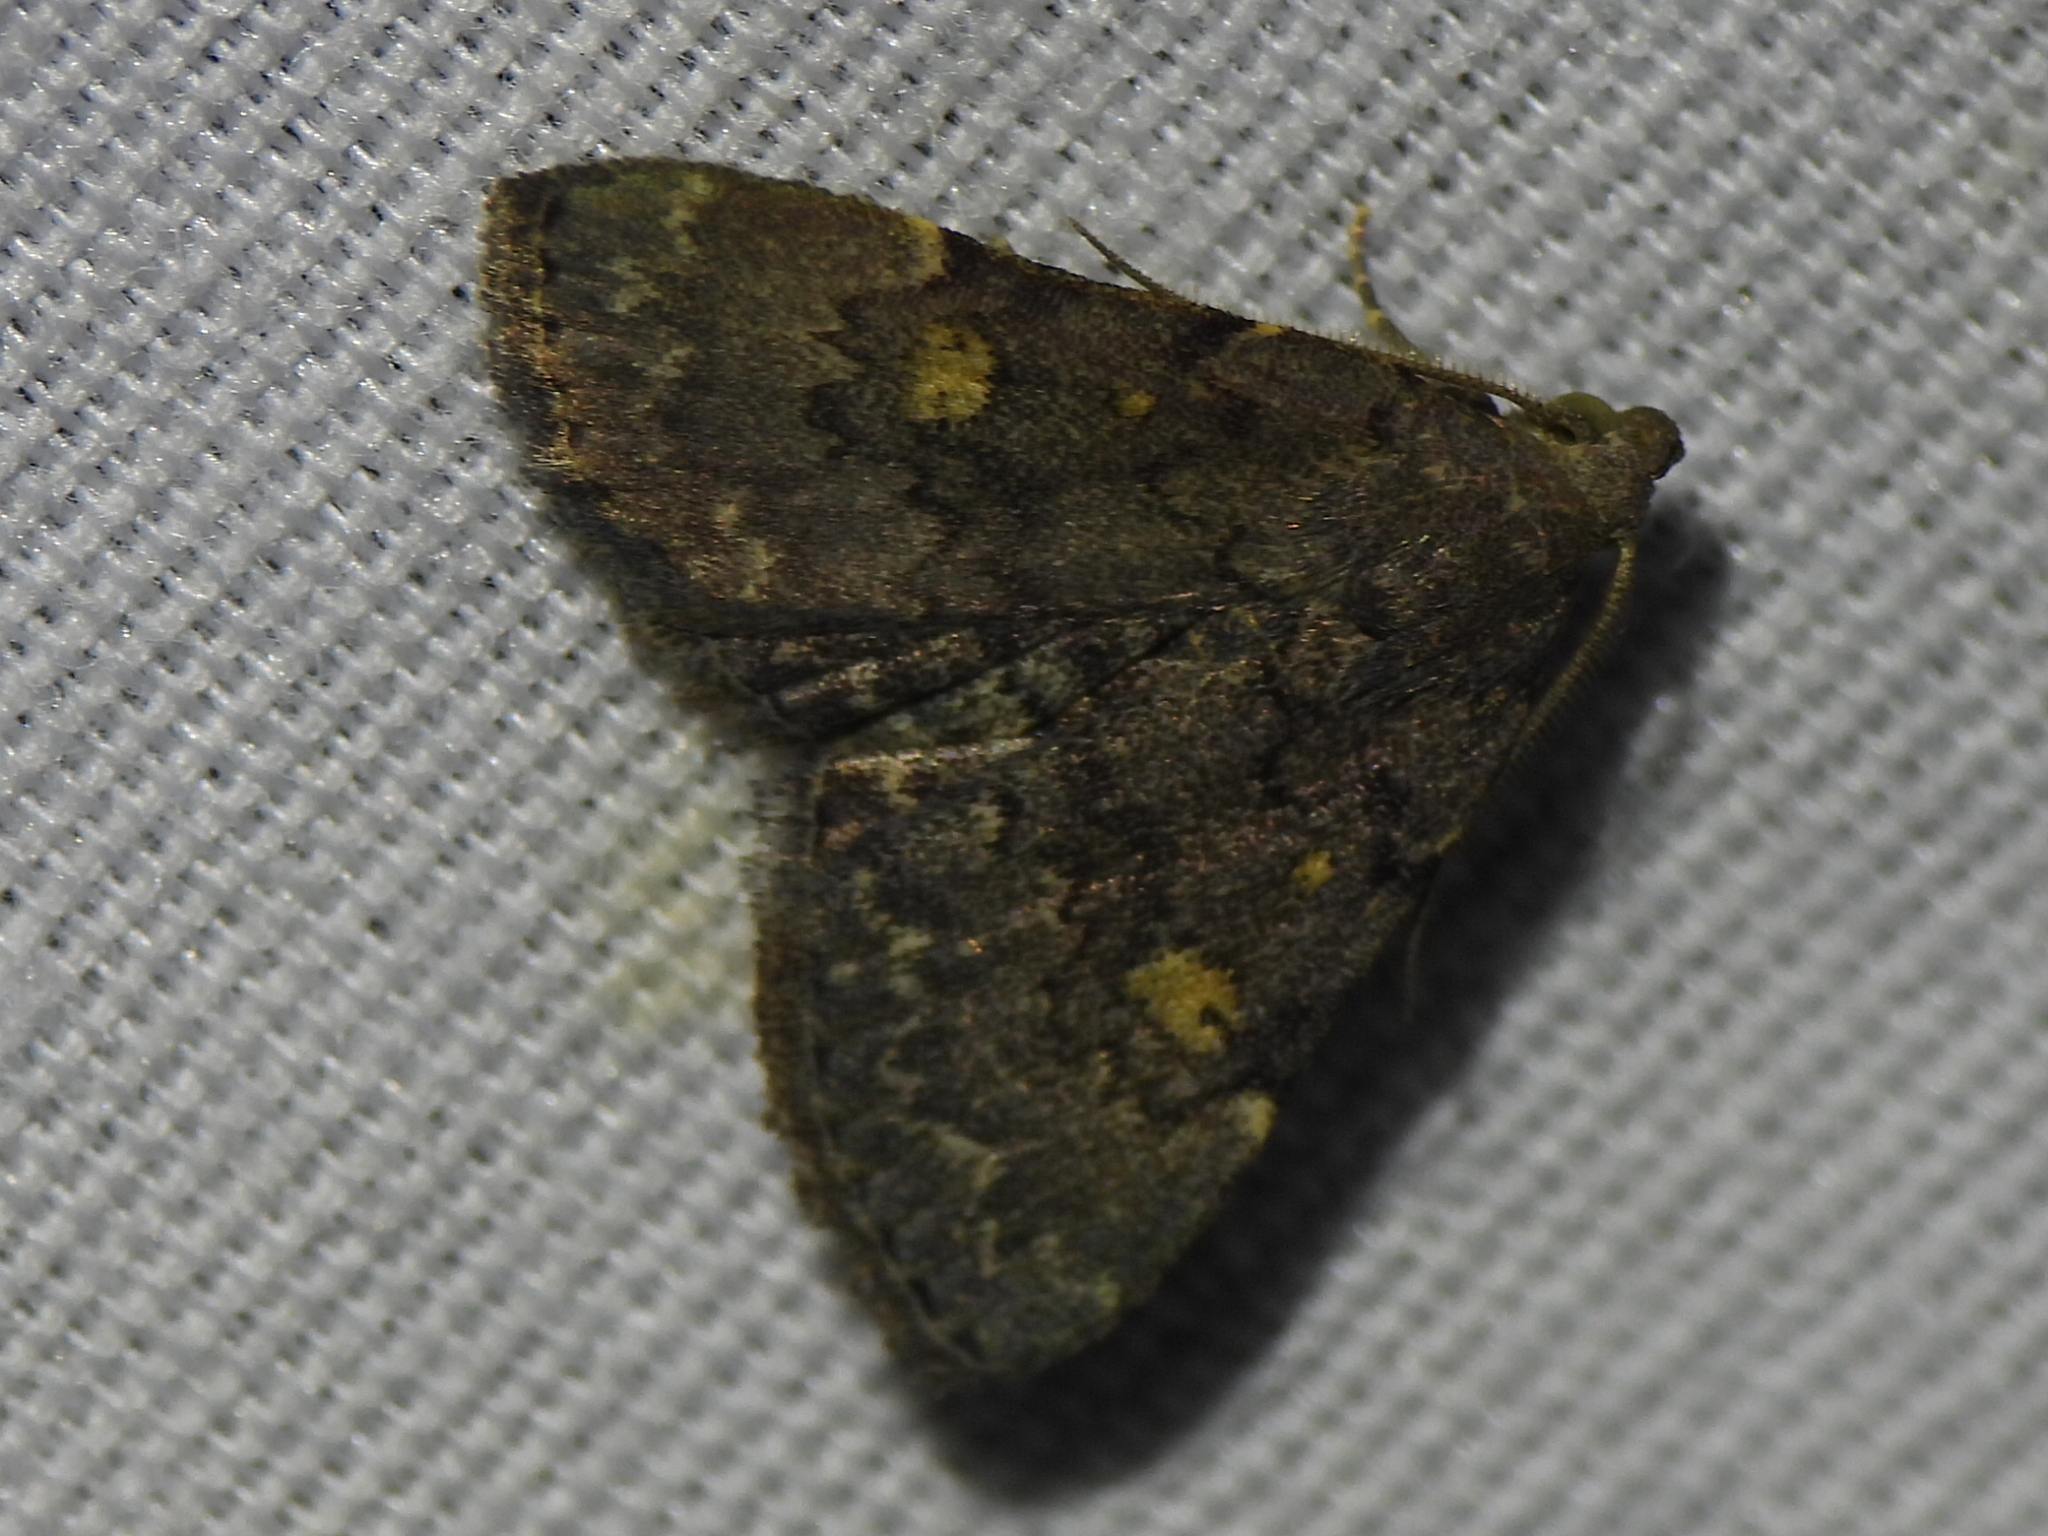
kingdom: Animalia
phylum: Arthropoda
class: Insecta
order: Lepidoptera
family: Erebidae
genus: Idia
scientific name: Idia aemula
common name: Common idia moth
